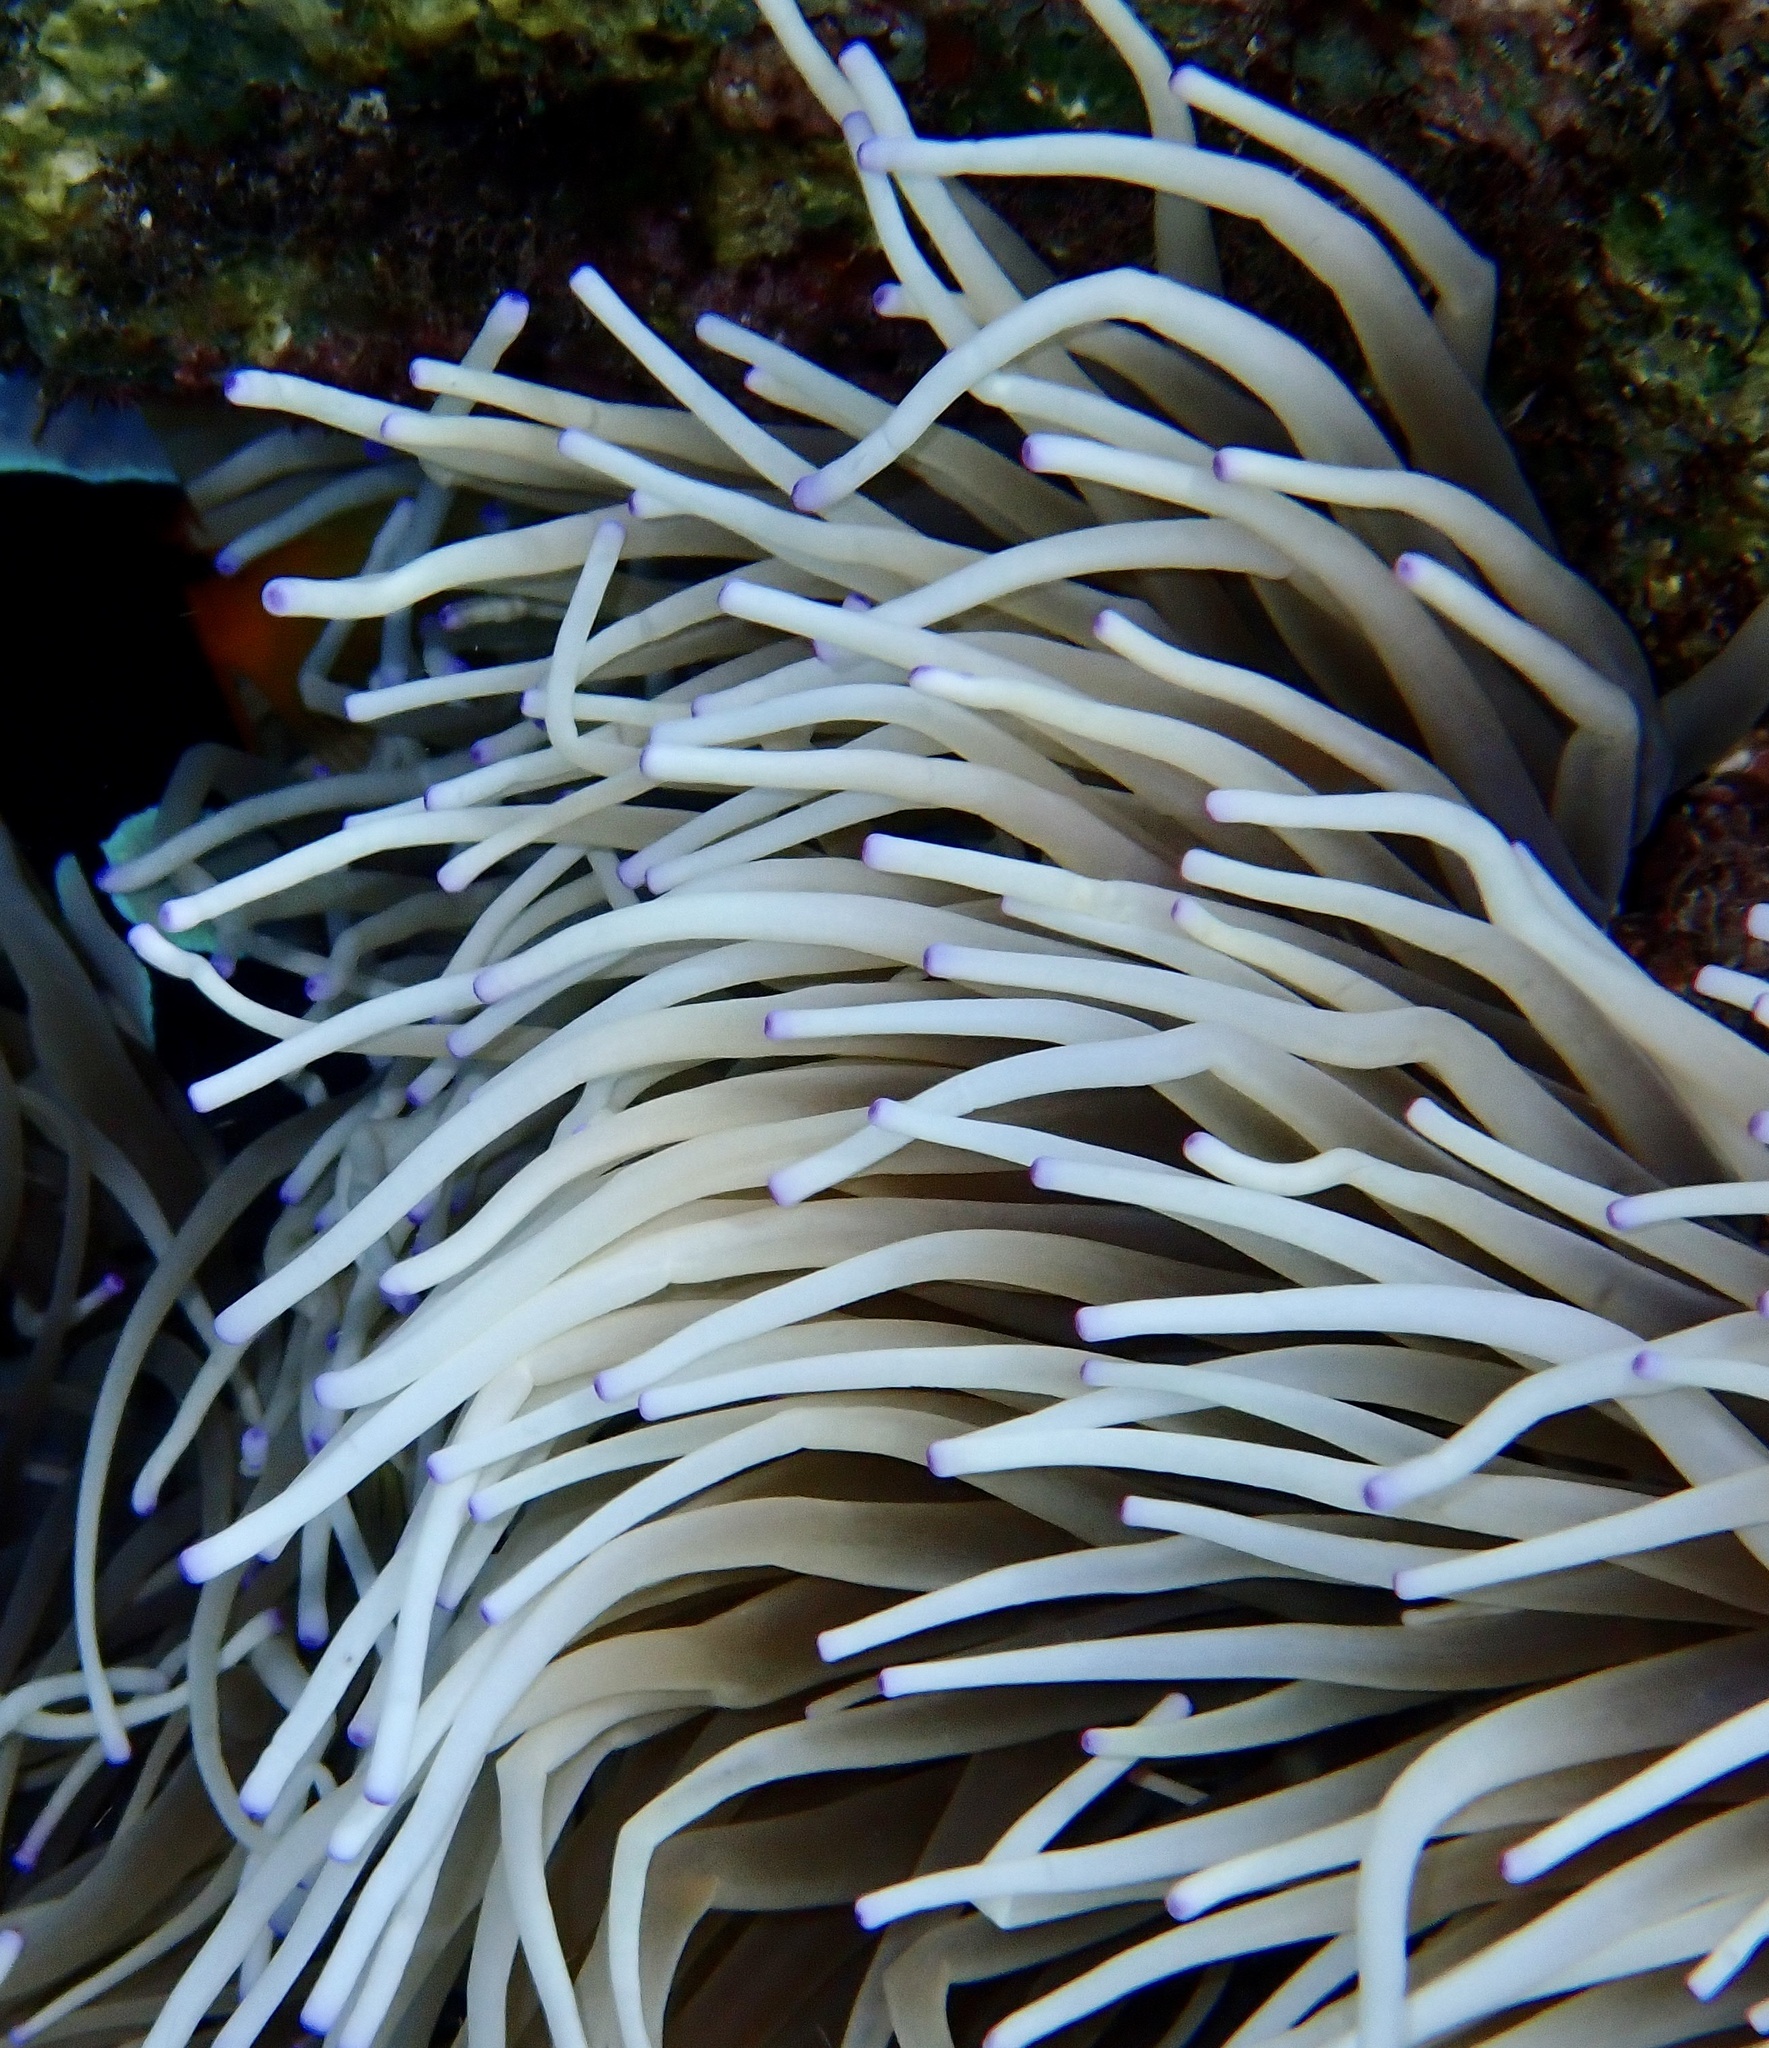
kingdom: Animalia
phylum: Cnidaria
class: Anthozoa
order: Actiniaria
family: Stichodactylidae
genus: Radianthus
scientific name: Radianthus crispa
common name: Leather anemone
